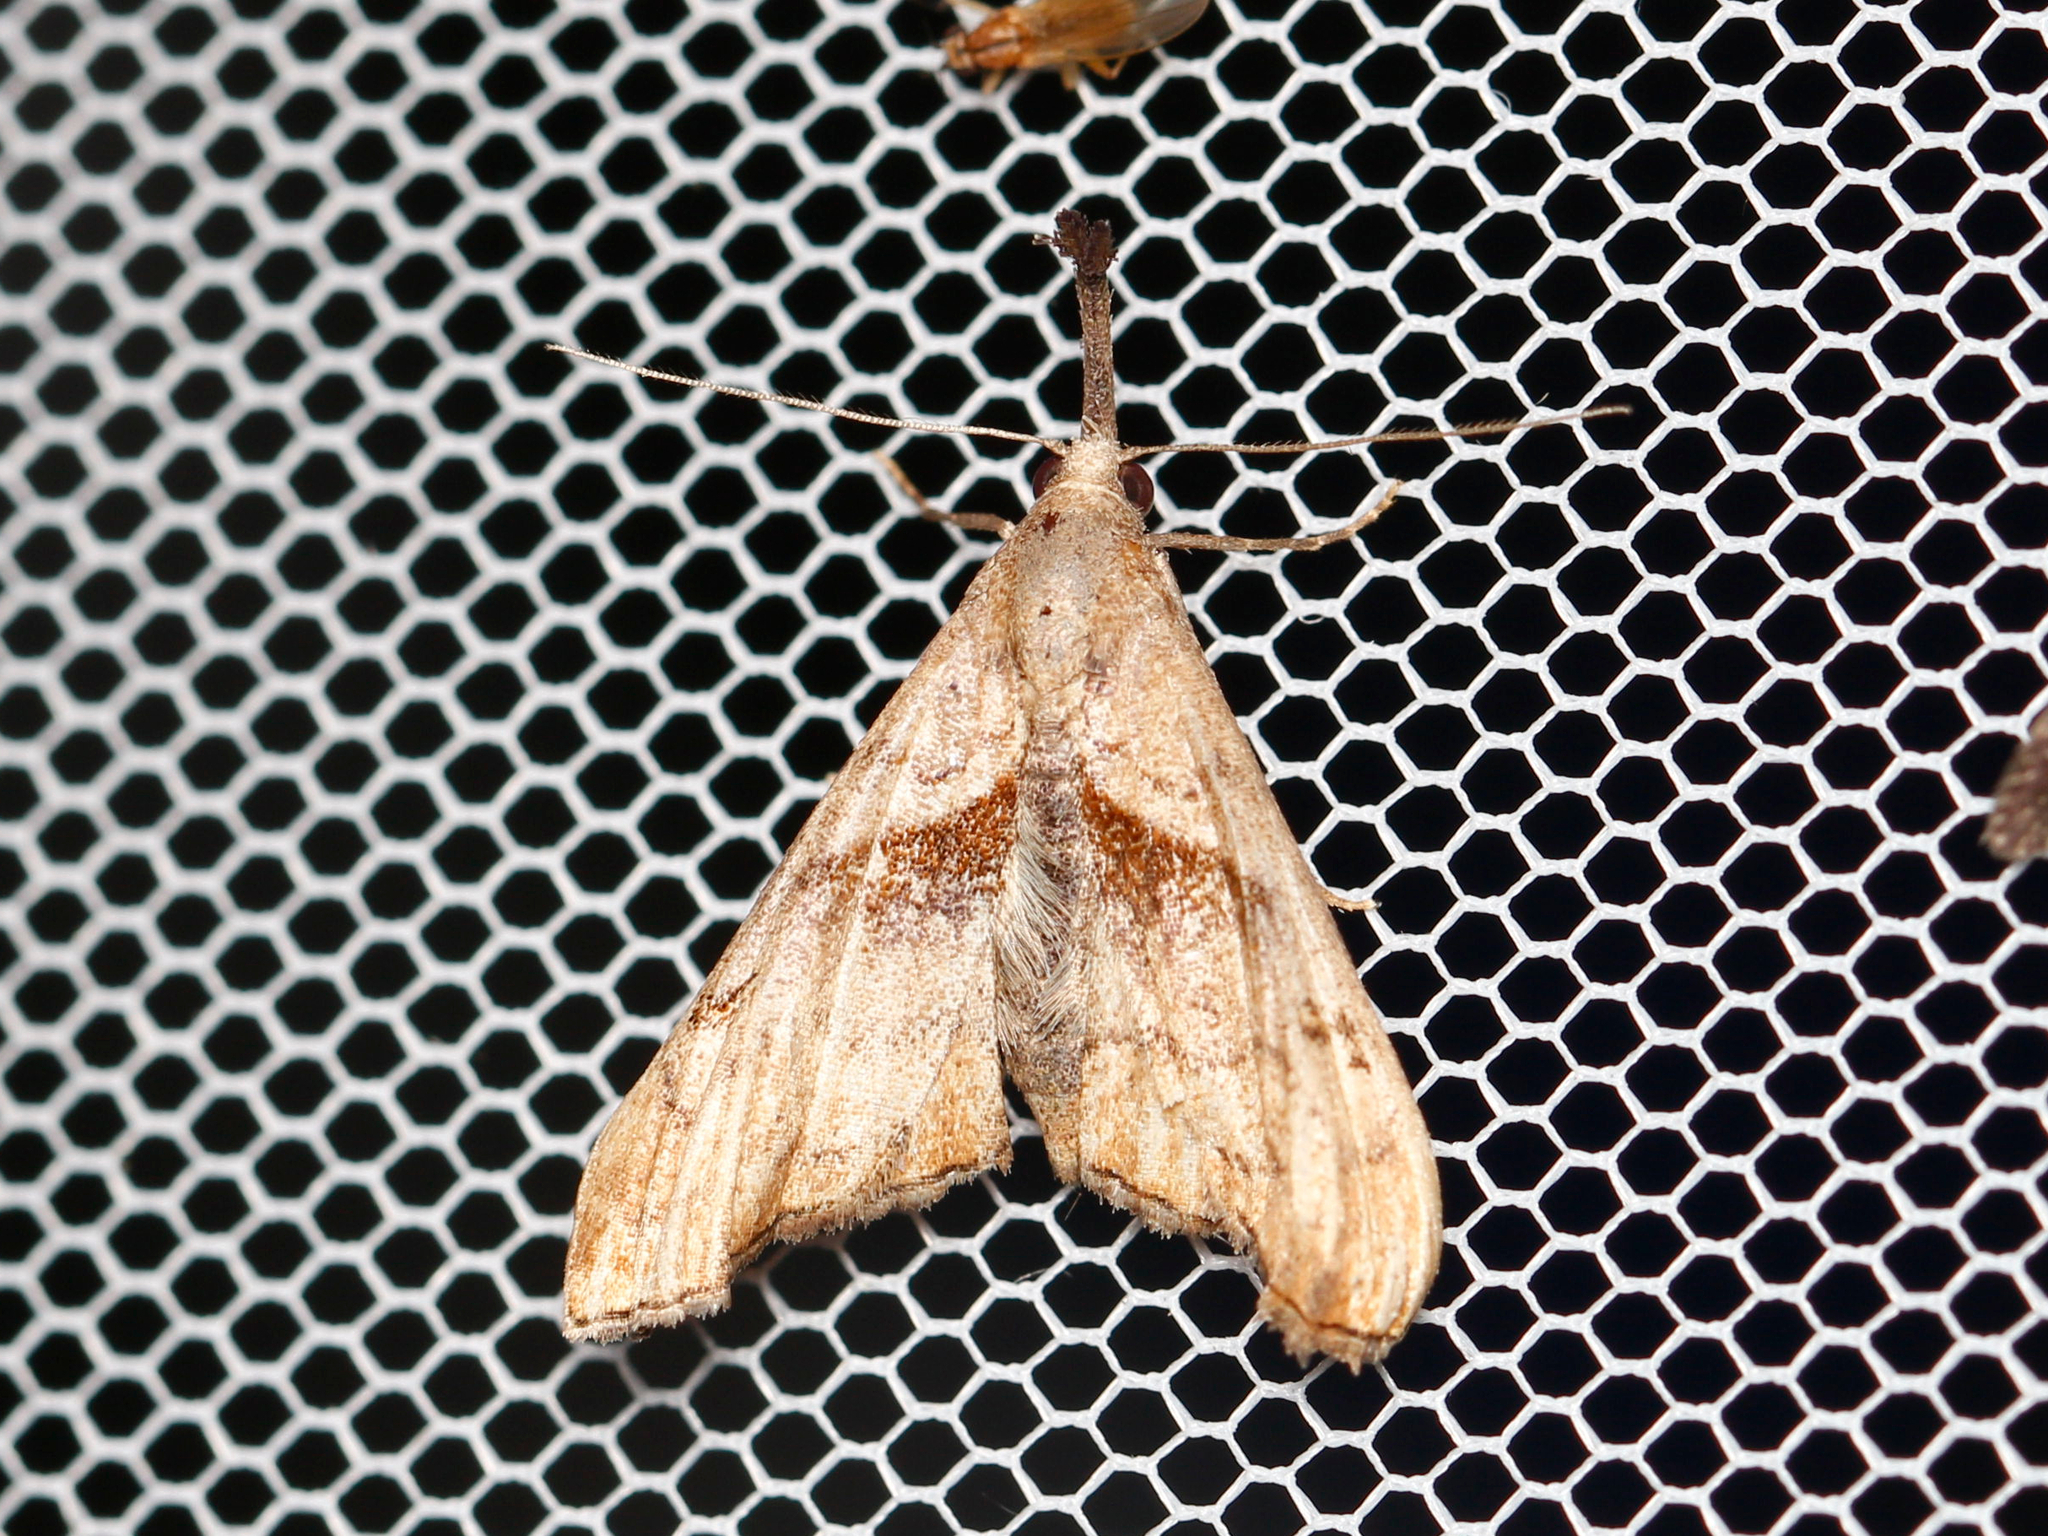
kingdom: Animalia
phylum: Arthropoda
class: Insecta
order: Lepidoptera
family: Erebidae
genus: Palthis
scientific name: Palthis angulalis
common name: Dark-spotted palthis moth
